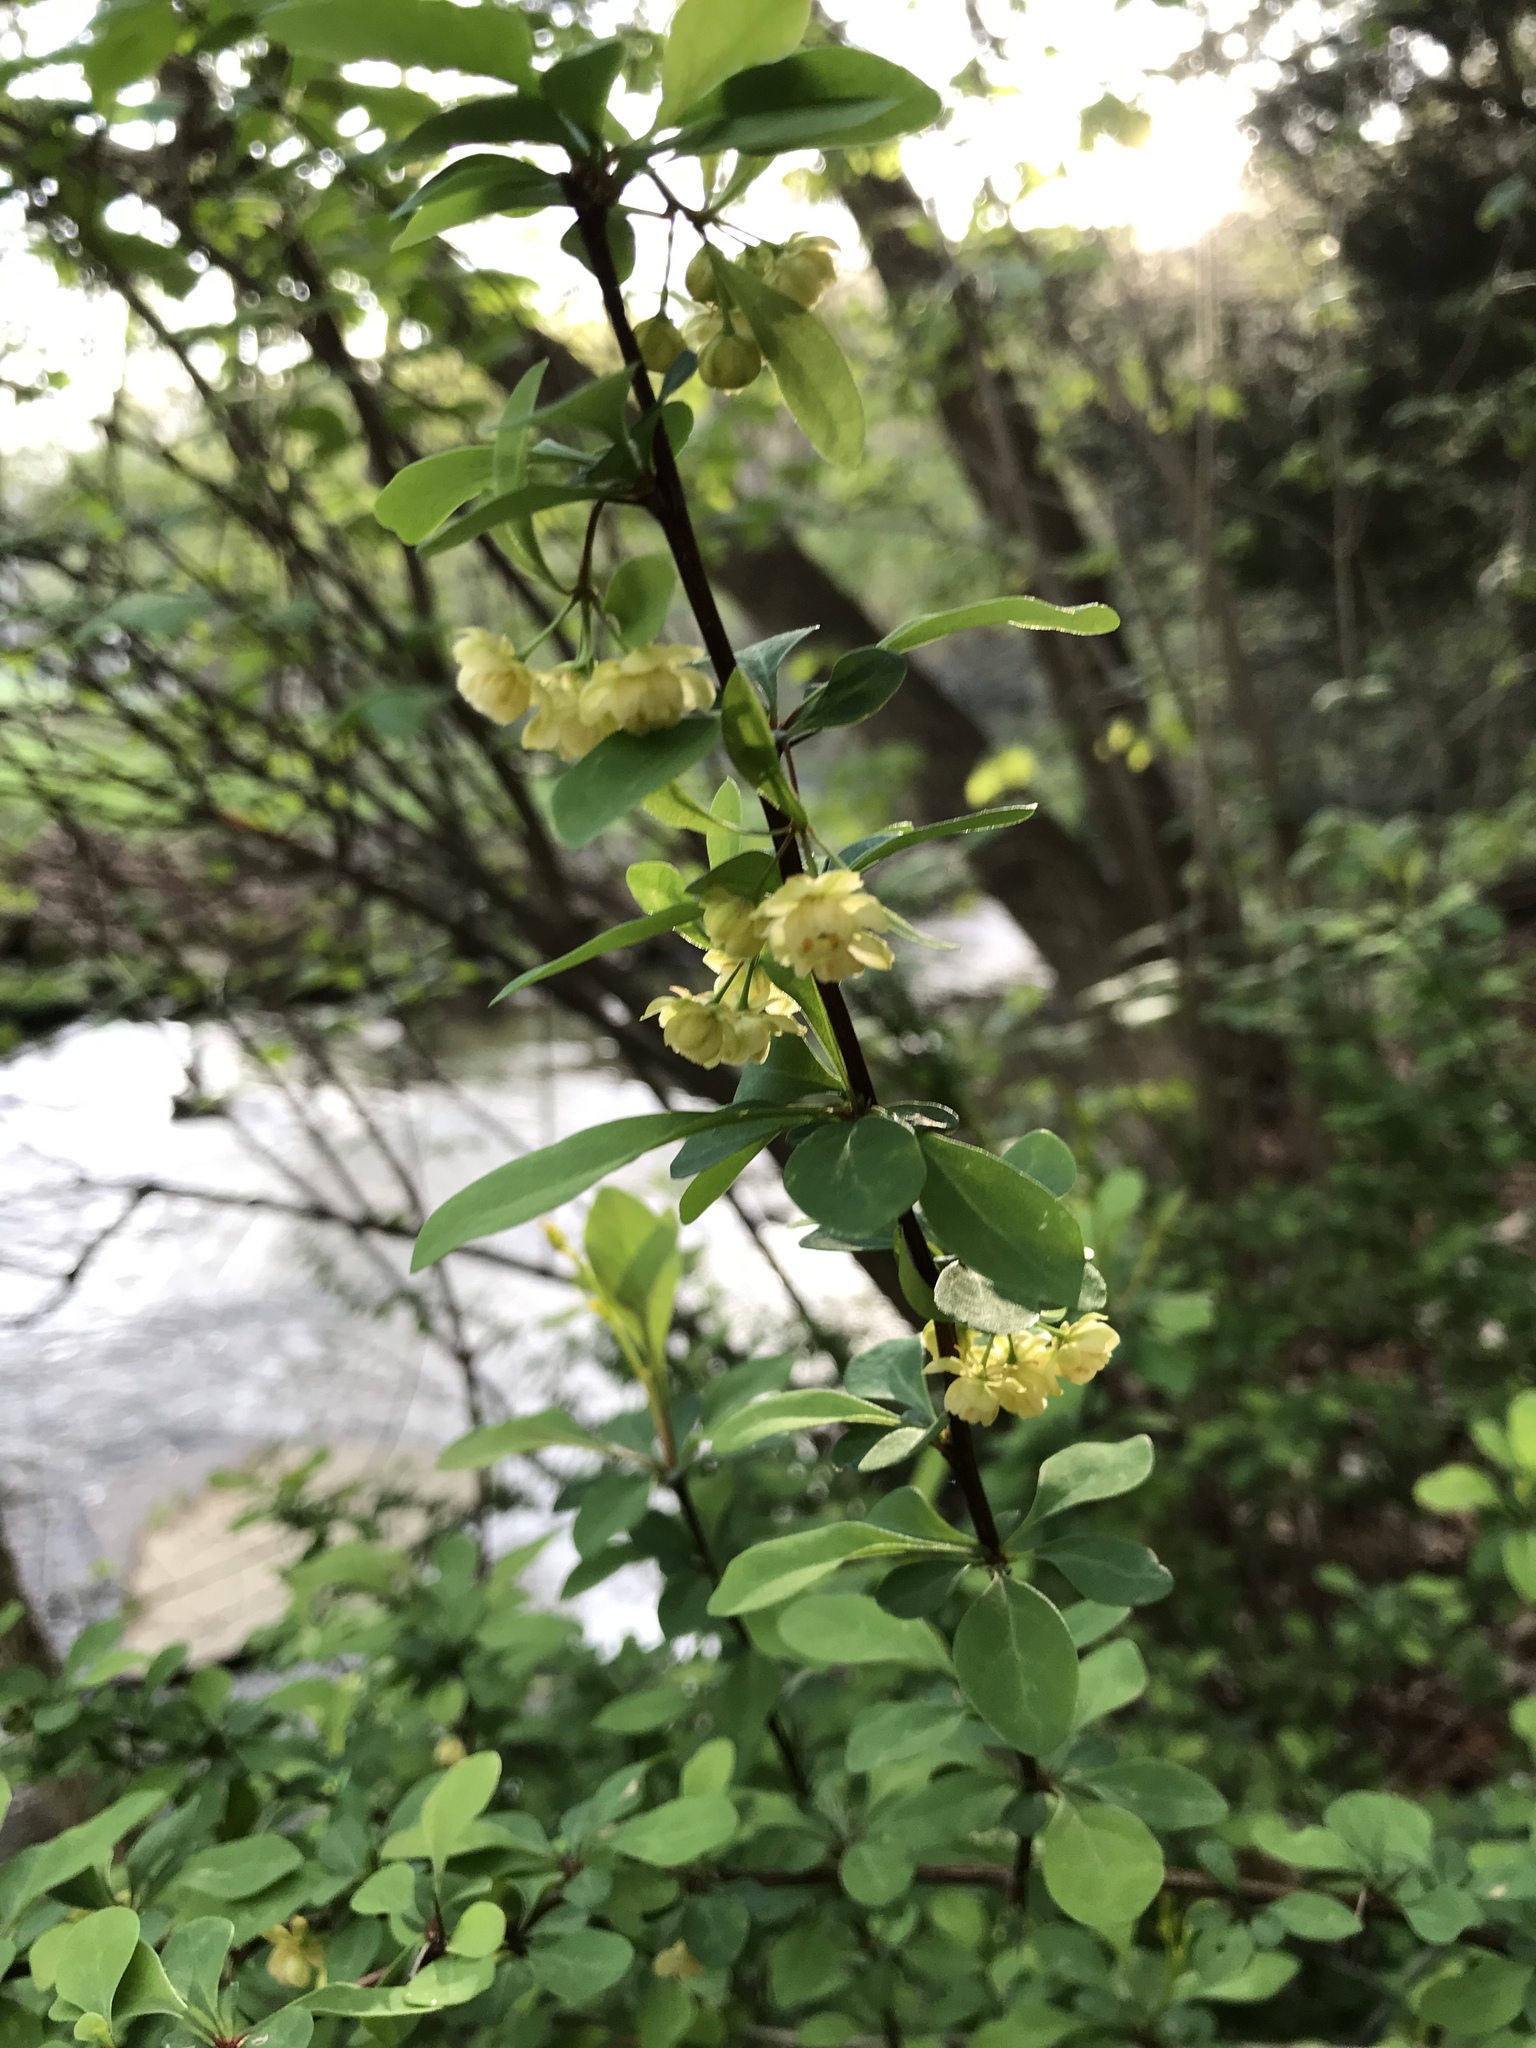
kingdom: Plantae
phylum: Tracheophyta
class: Magnoliopsida
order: Ranunculales
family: Berberidaceae
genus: Berberis
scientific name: Berberis thunbergii
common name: Japanese barberry
